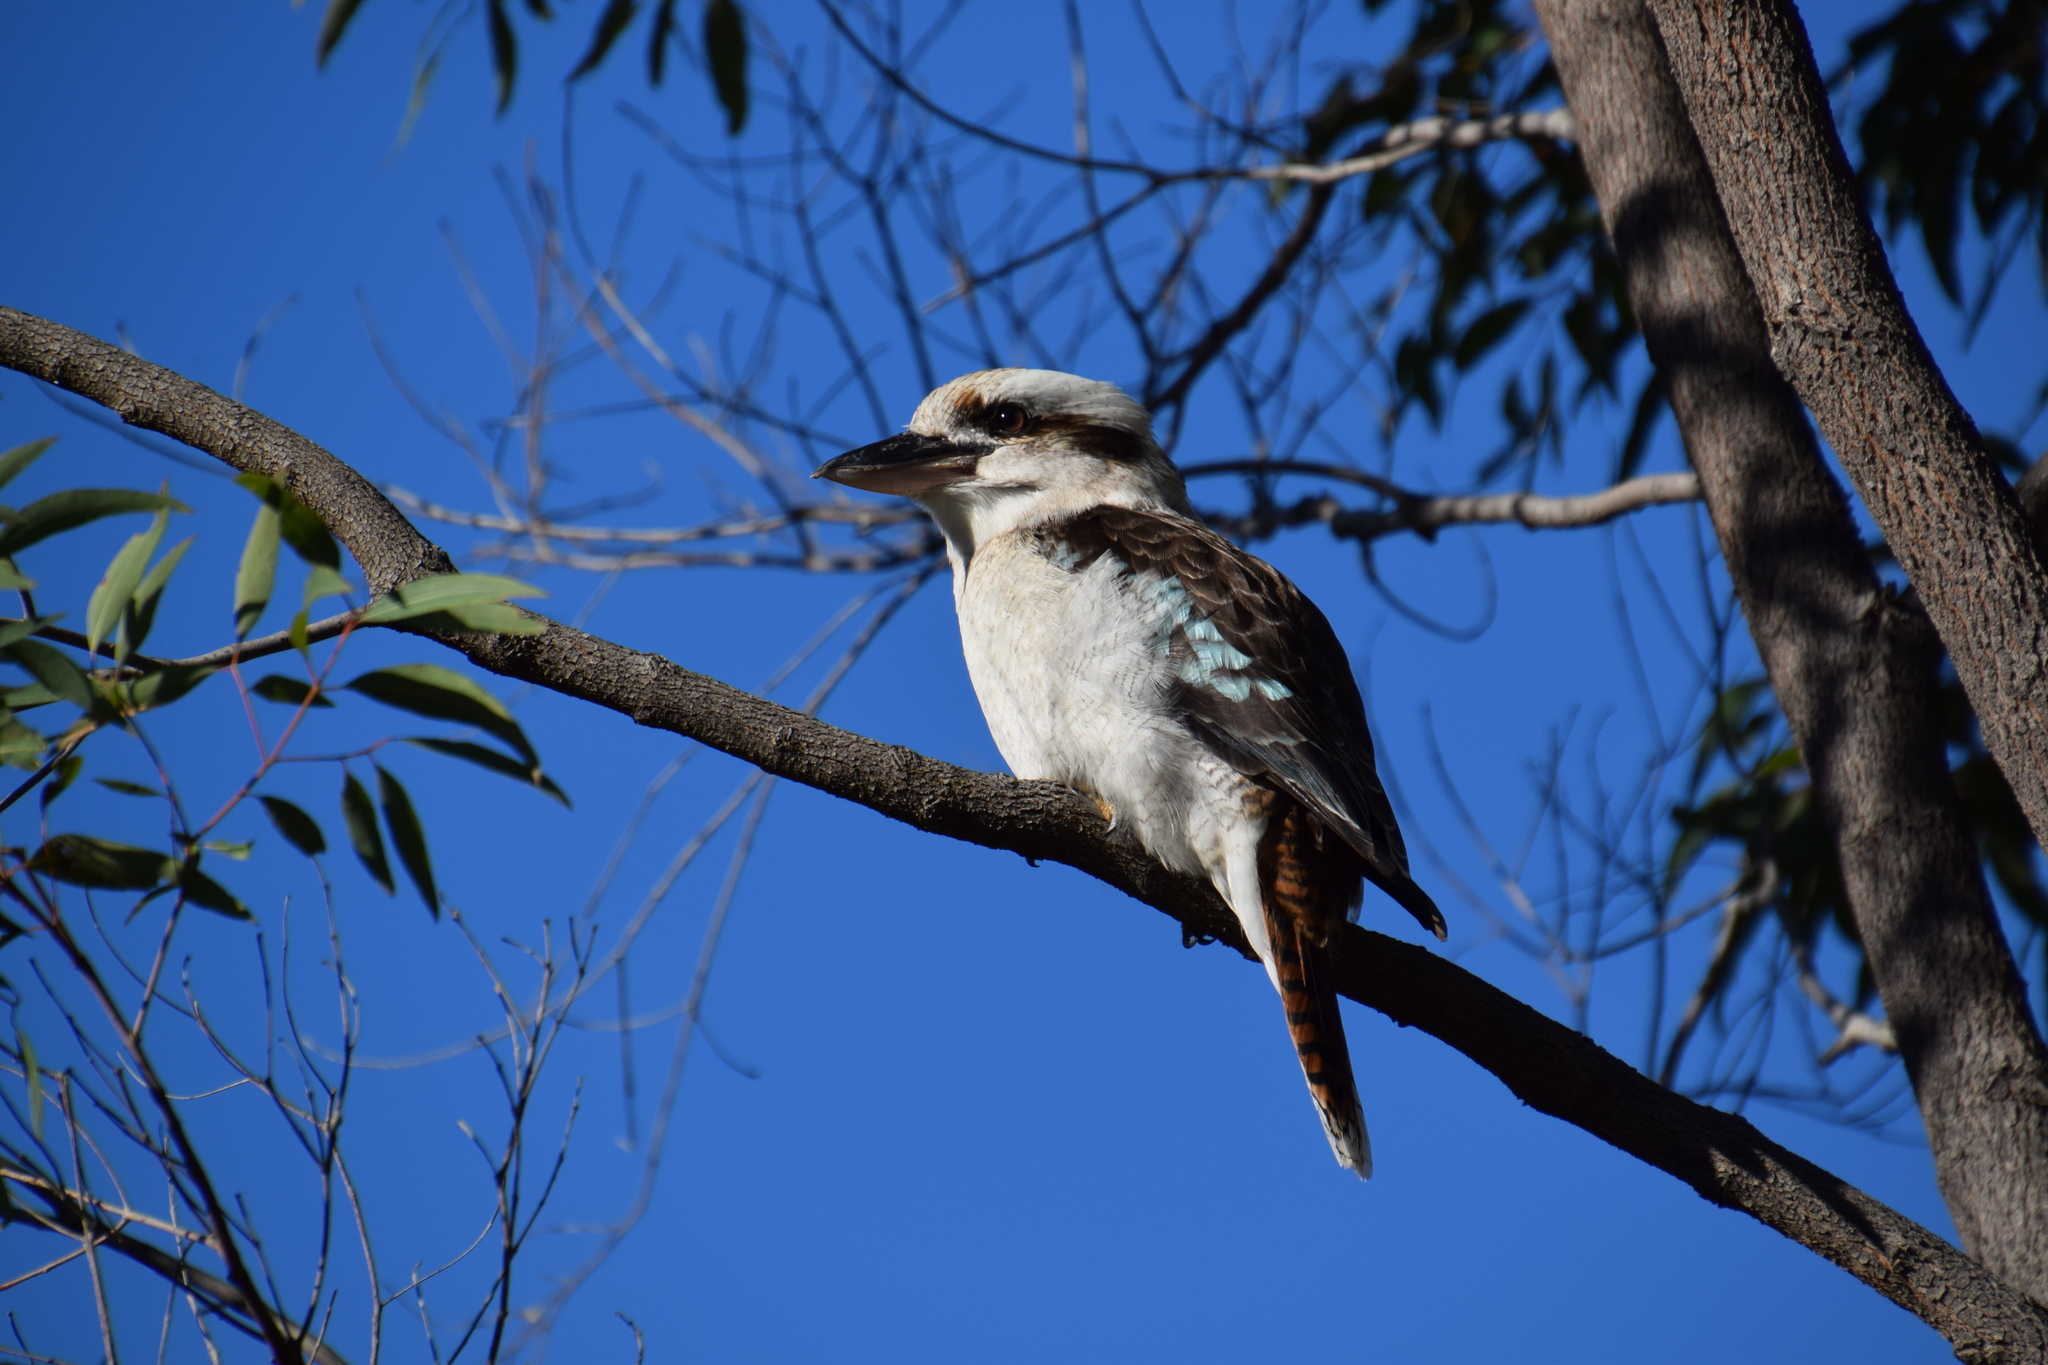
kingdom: Animalia
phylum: Chordata
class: Aves
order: Coraciiformes
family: Alcedinidae
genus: Dacelo
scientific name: Dacelo novaeguineae
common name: Laughing kookaburra
